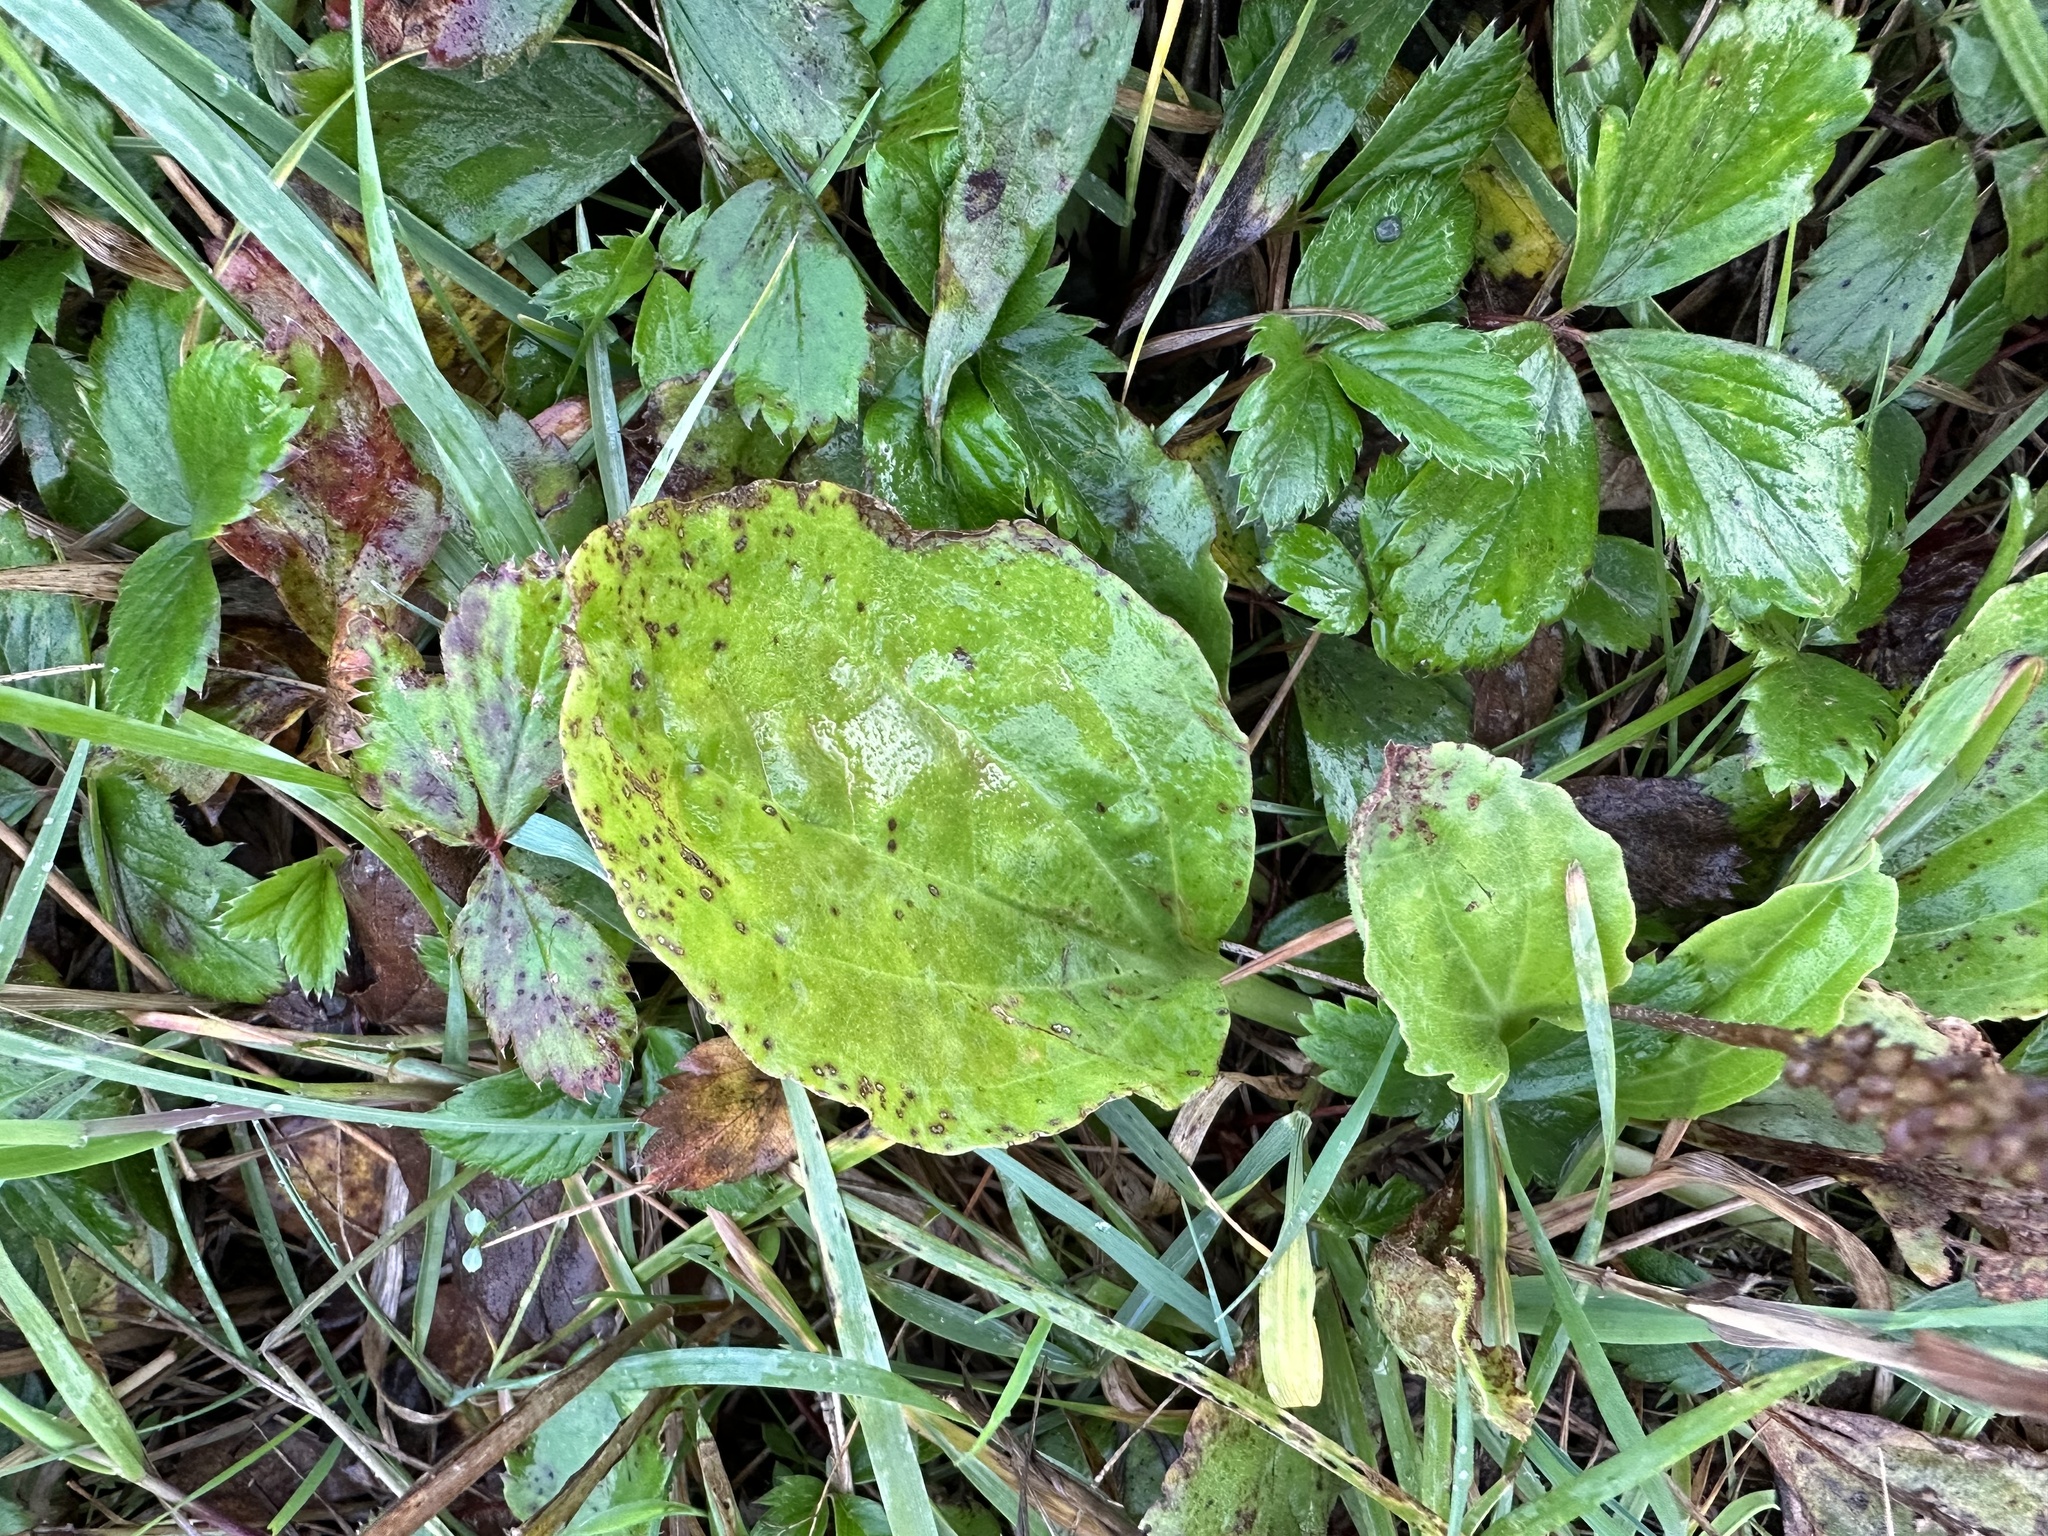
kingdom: Plantae
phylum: Tracheophyta
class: Magnoliopsida
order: Lamiales
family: Plantaginaceae
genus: Plantago
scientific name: Plantago major
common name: Common plantain
